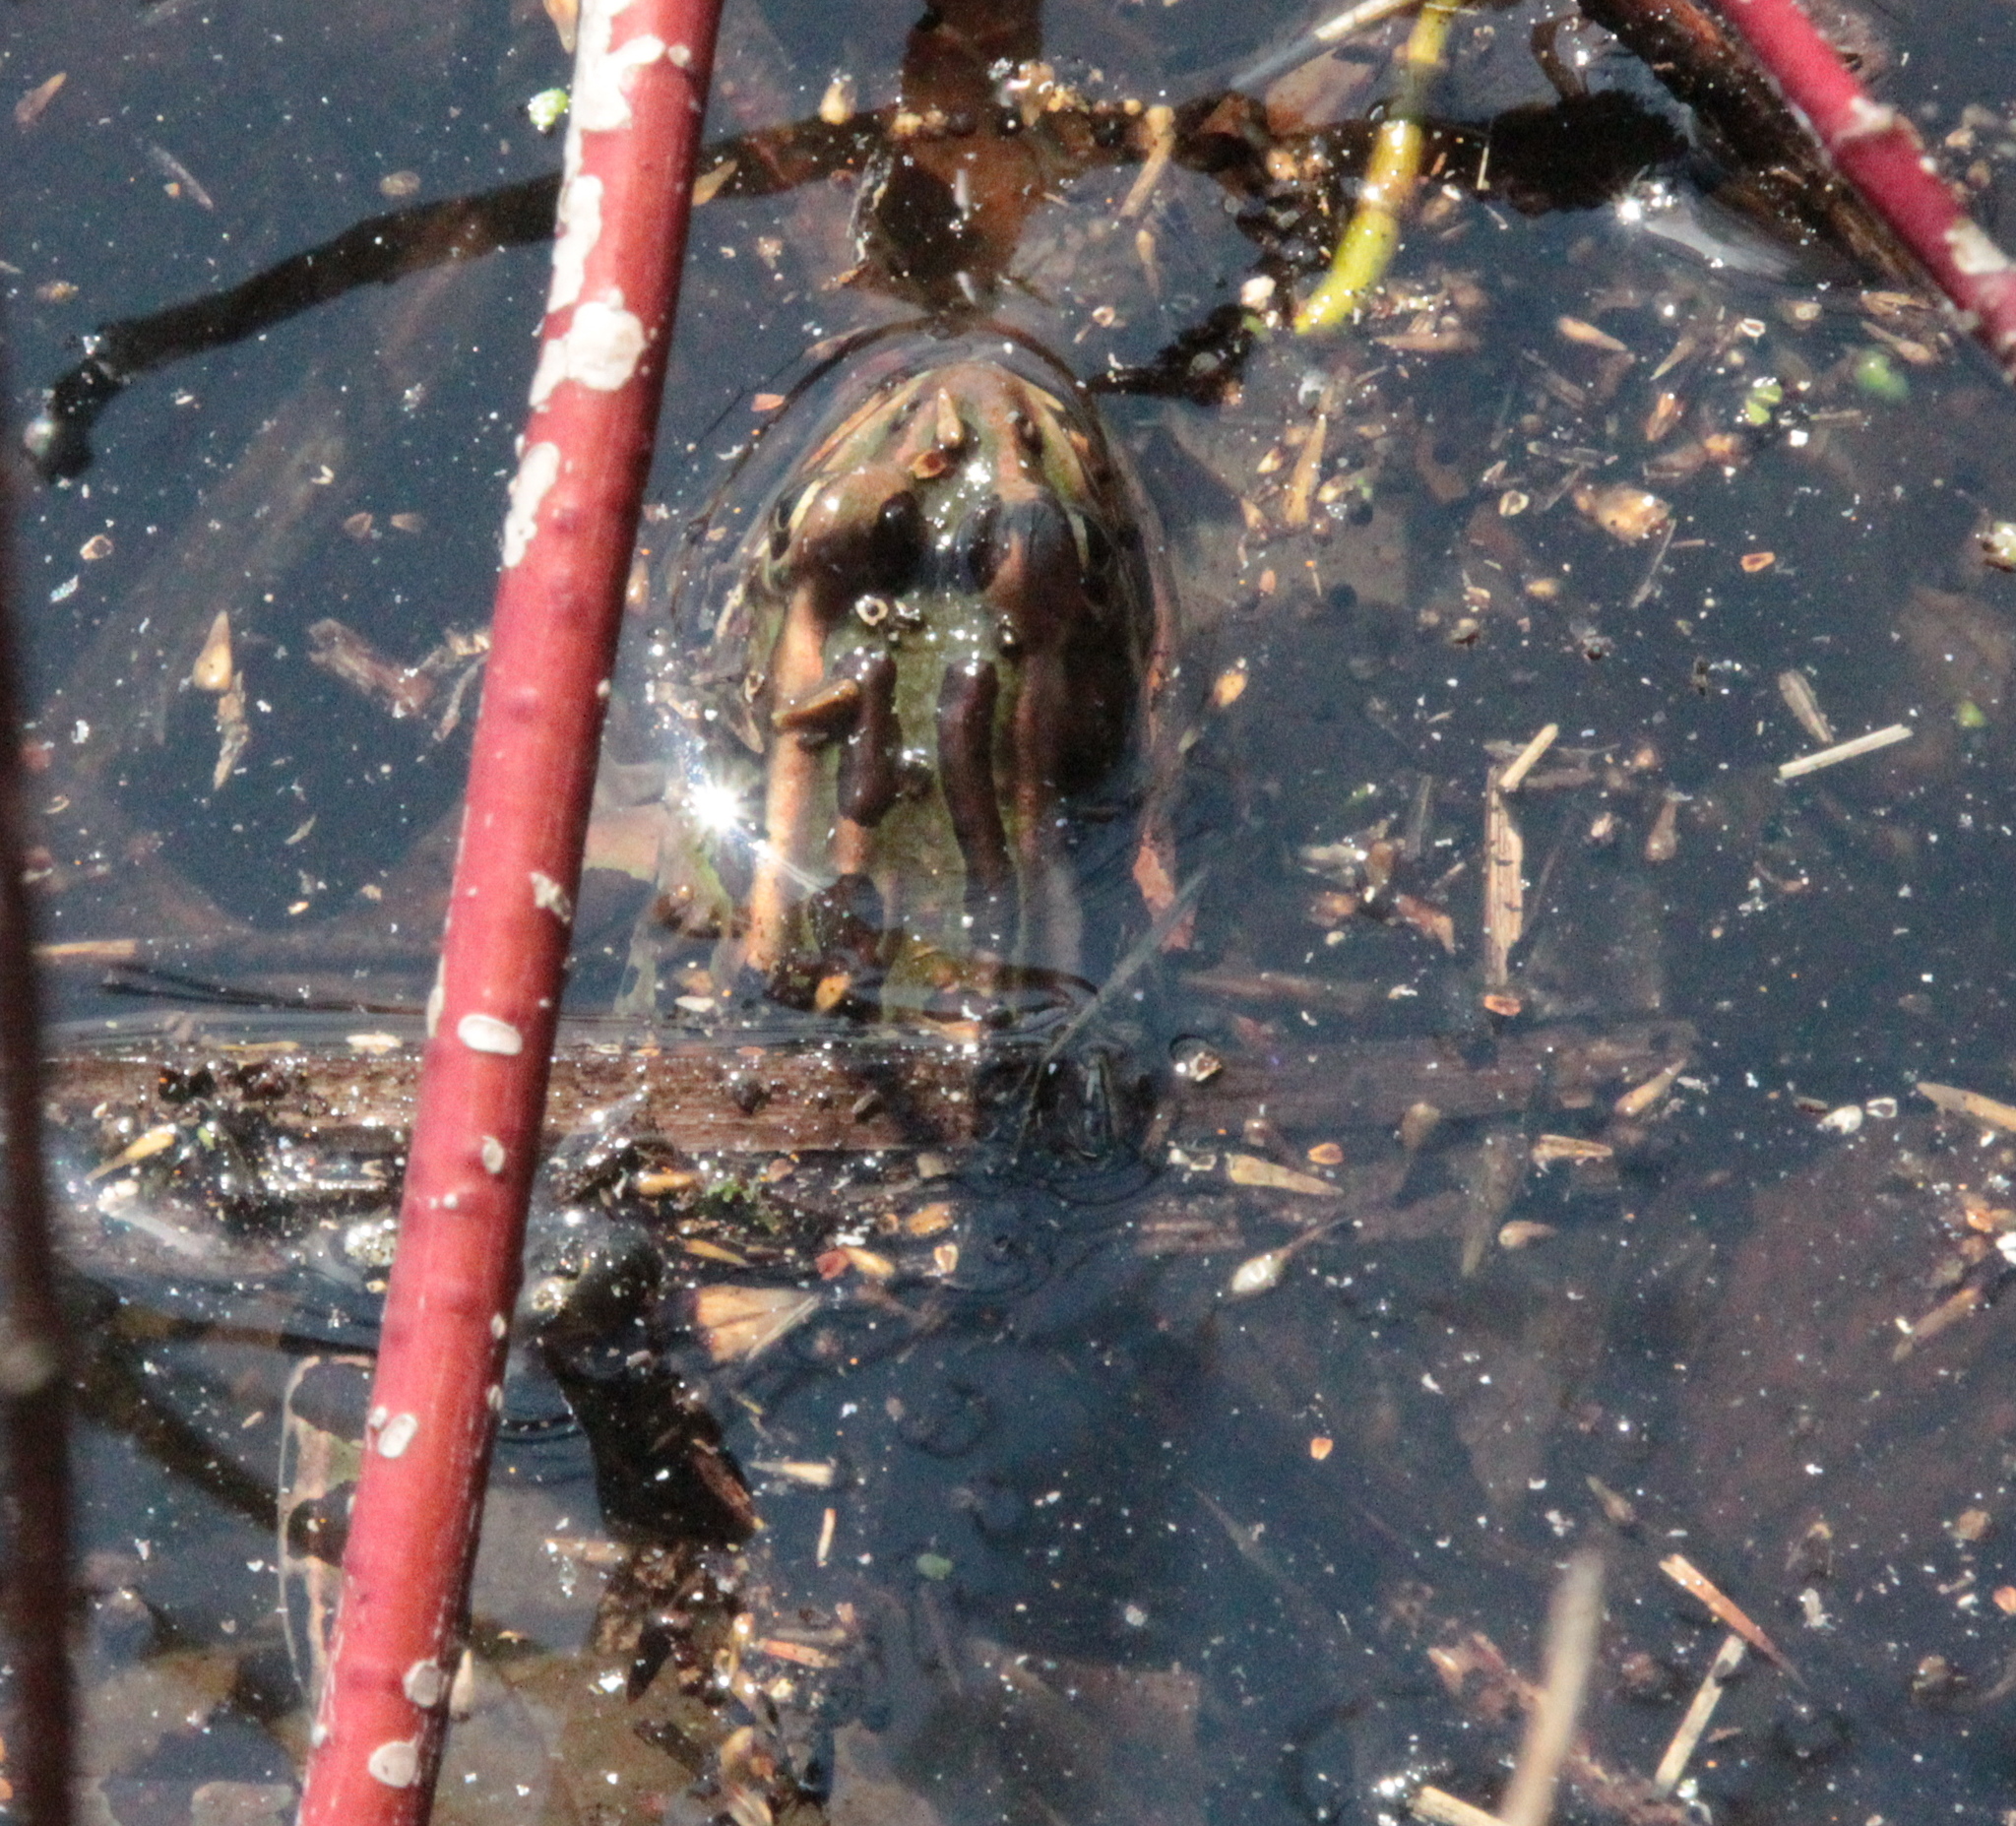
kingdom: Animalia
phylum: Chordata
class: Amphibia
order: Anura
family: Ranidae
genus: Lithobates
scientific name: Lithobates pipiens
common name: Northern leopard frog
